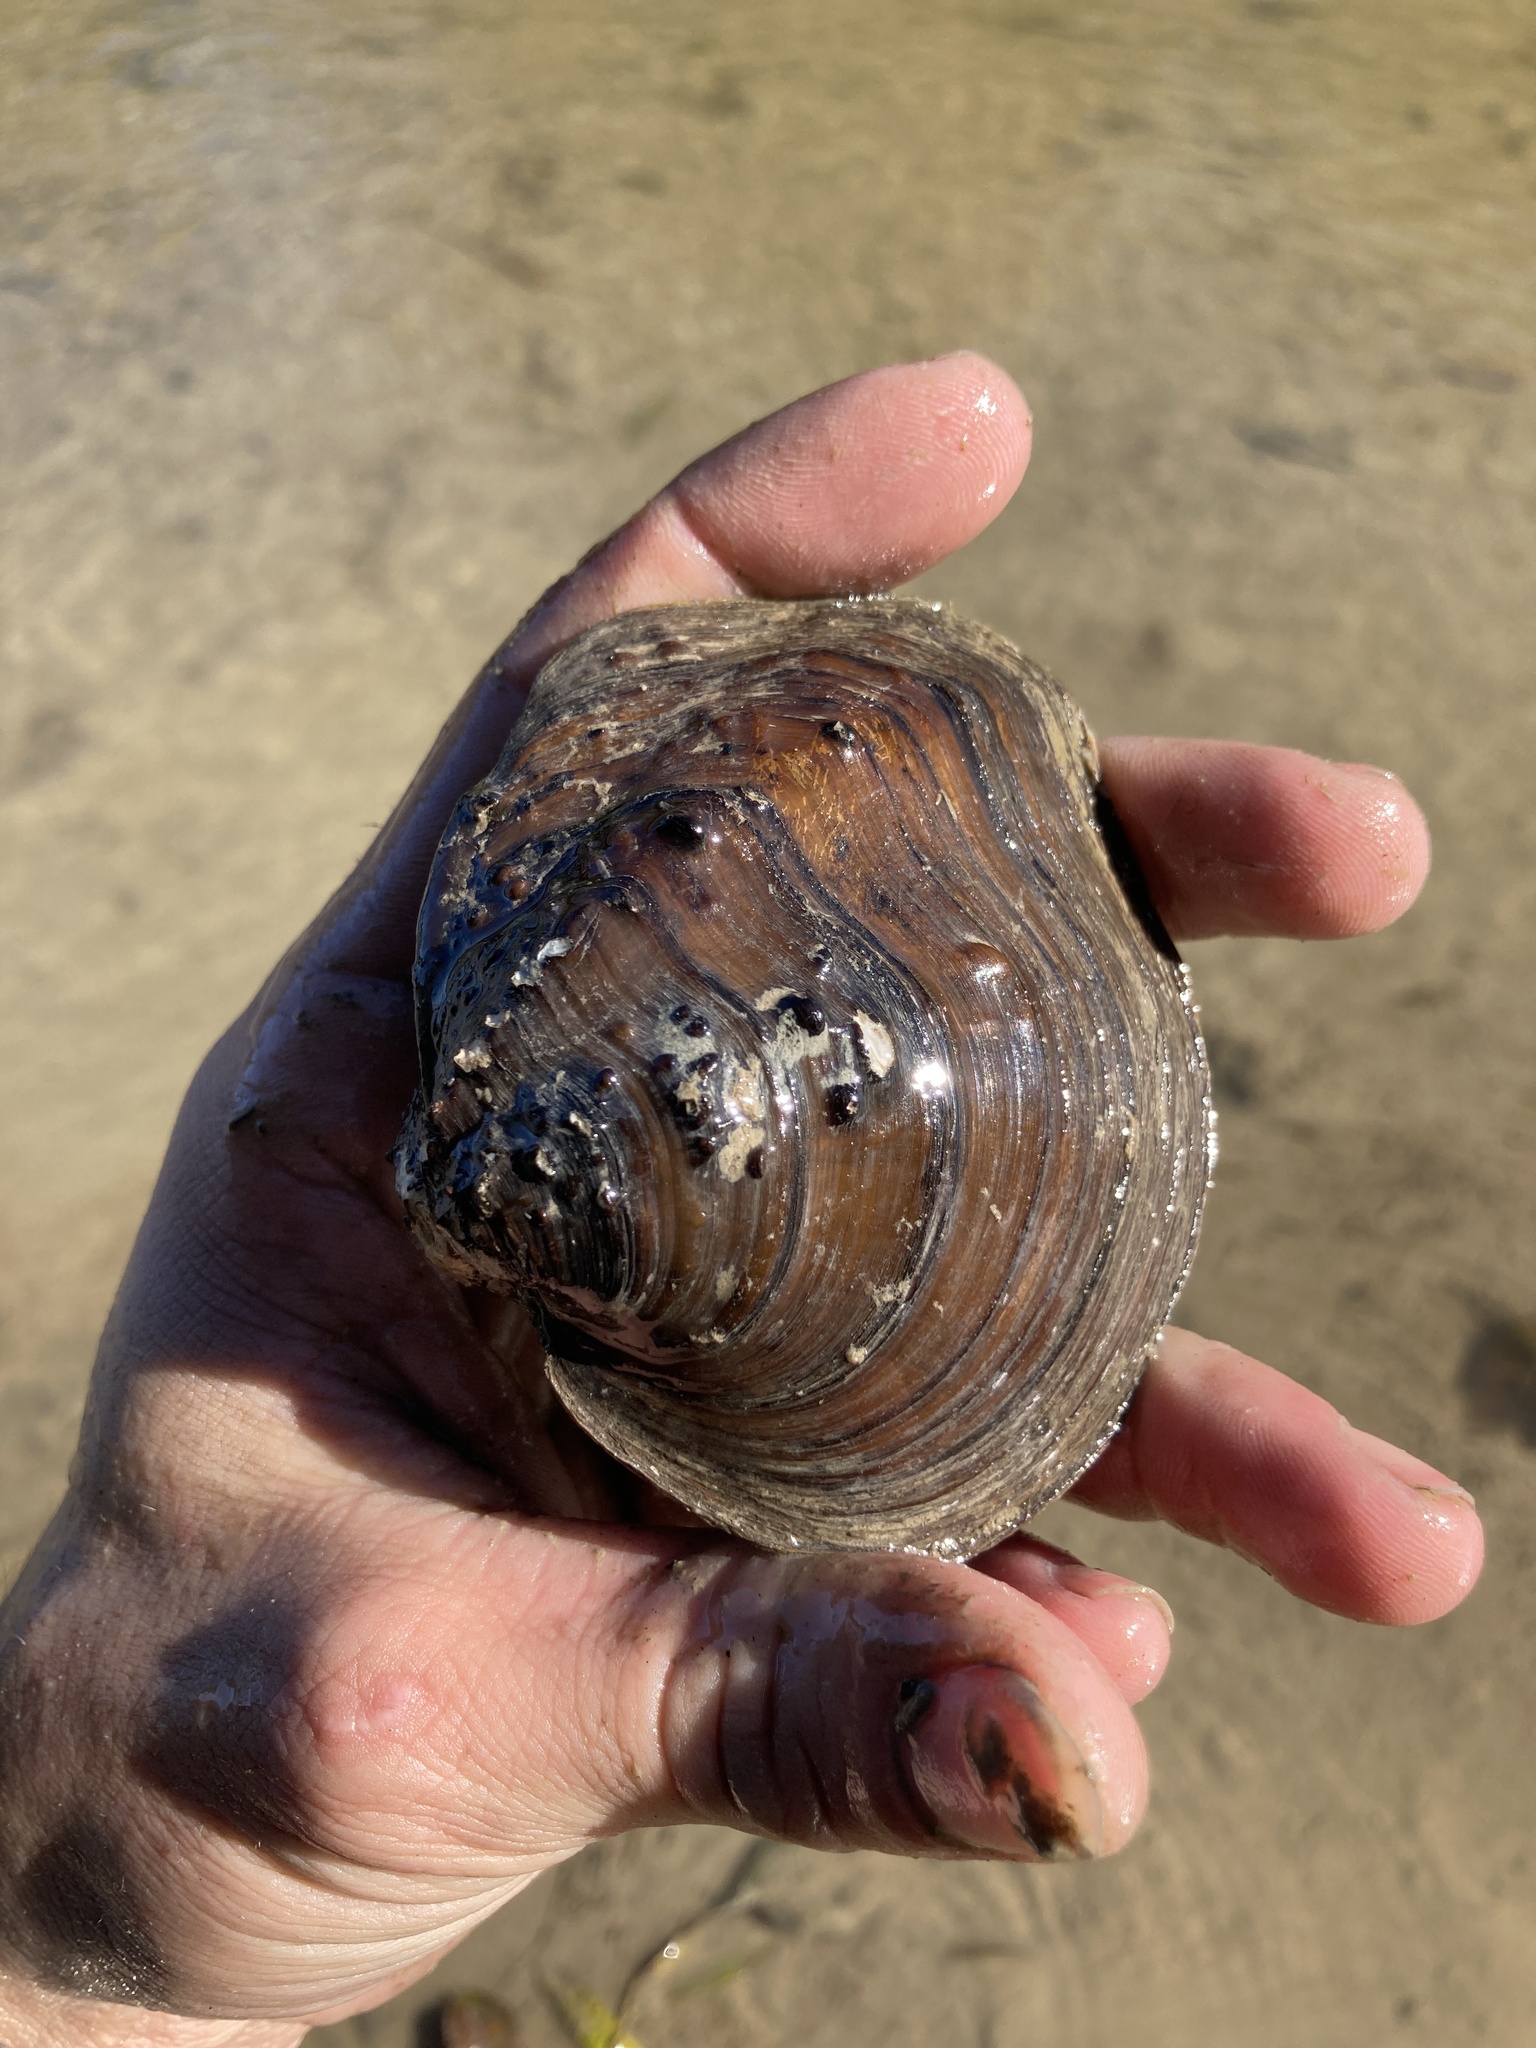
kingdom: Animalia
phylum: Mollusca
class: Bivalvia
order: Unionida
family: Unionidae
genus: Quadrula
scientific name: Quadrula quadrula
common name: Mapleleaf
